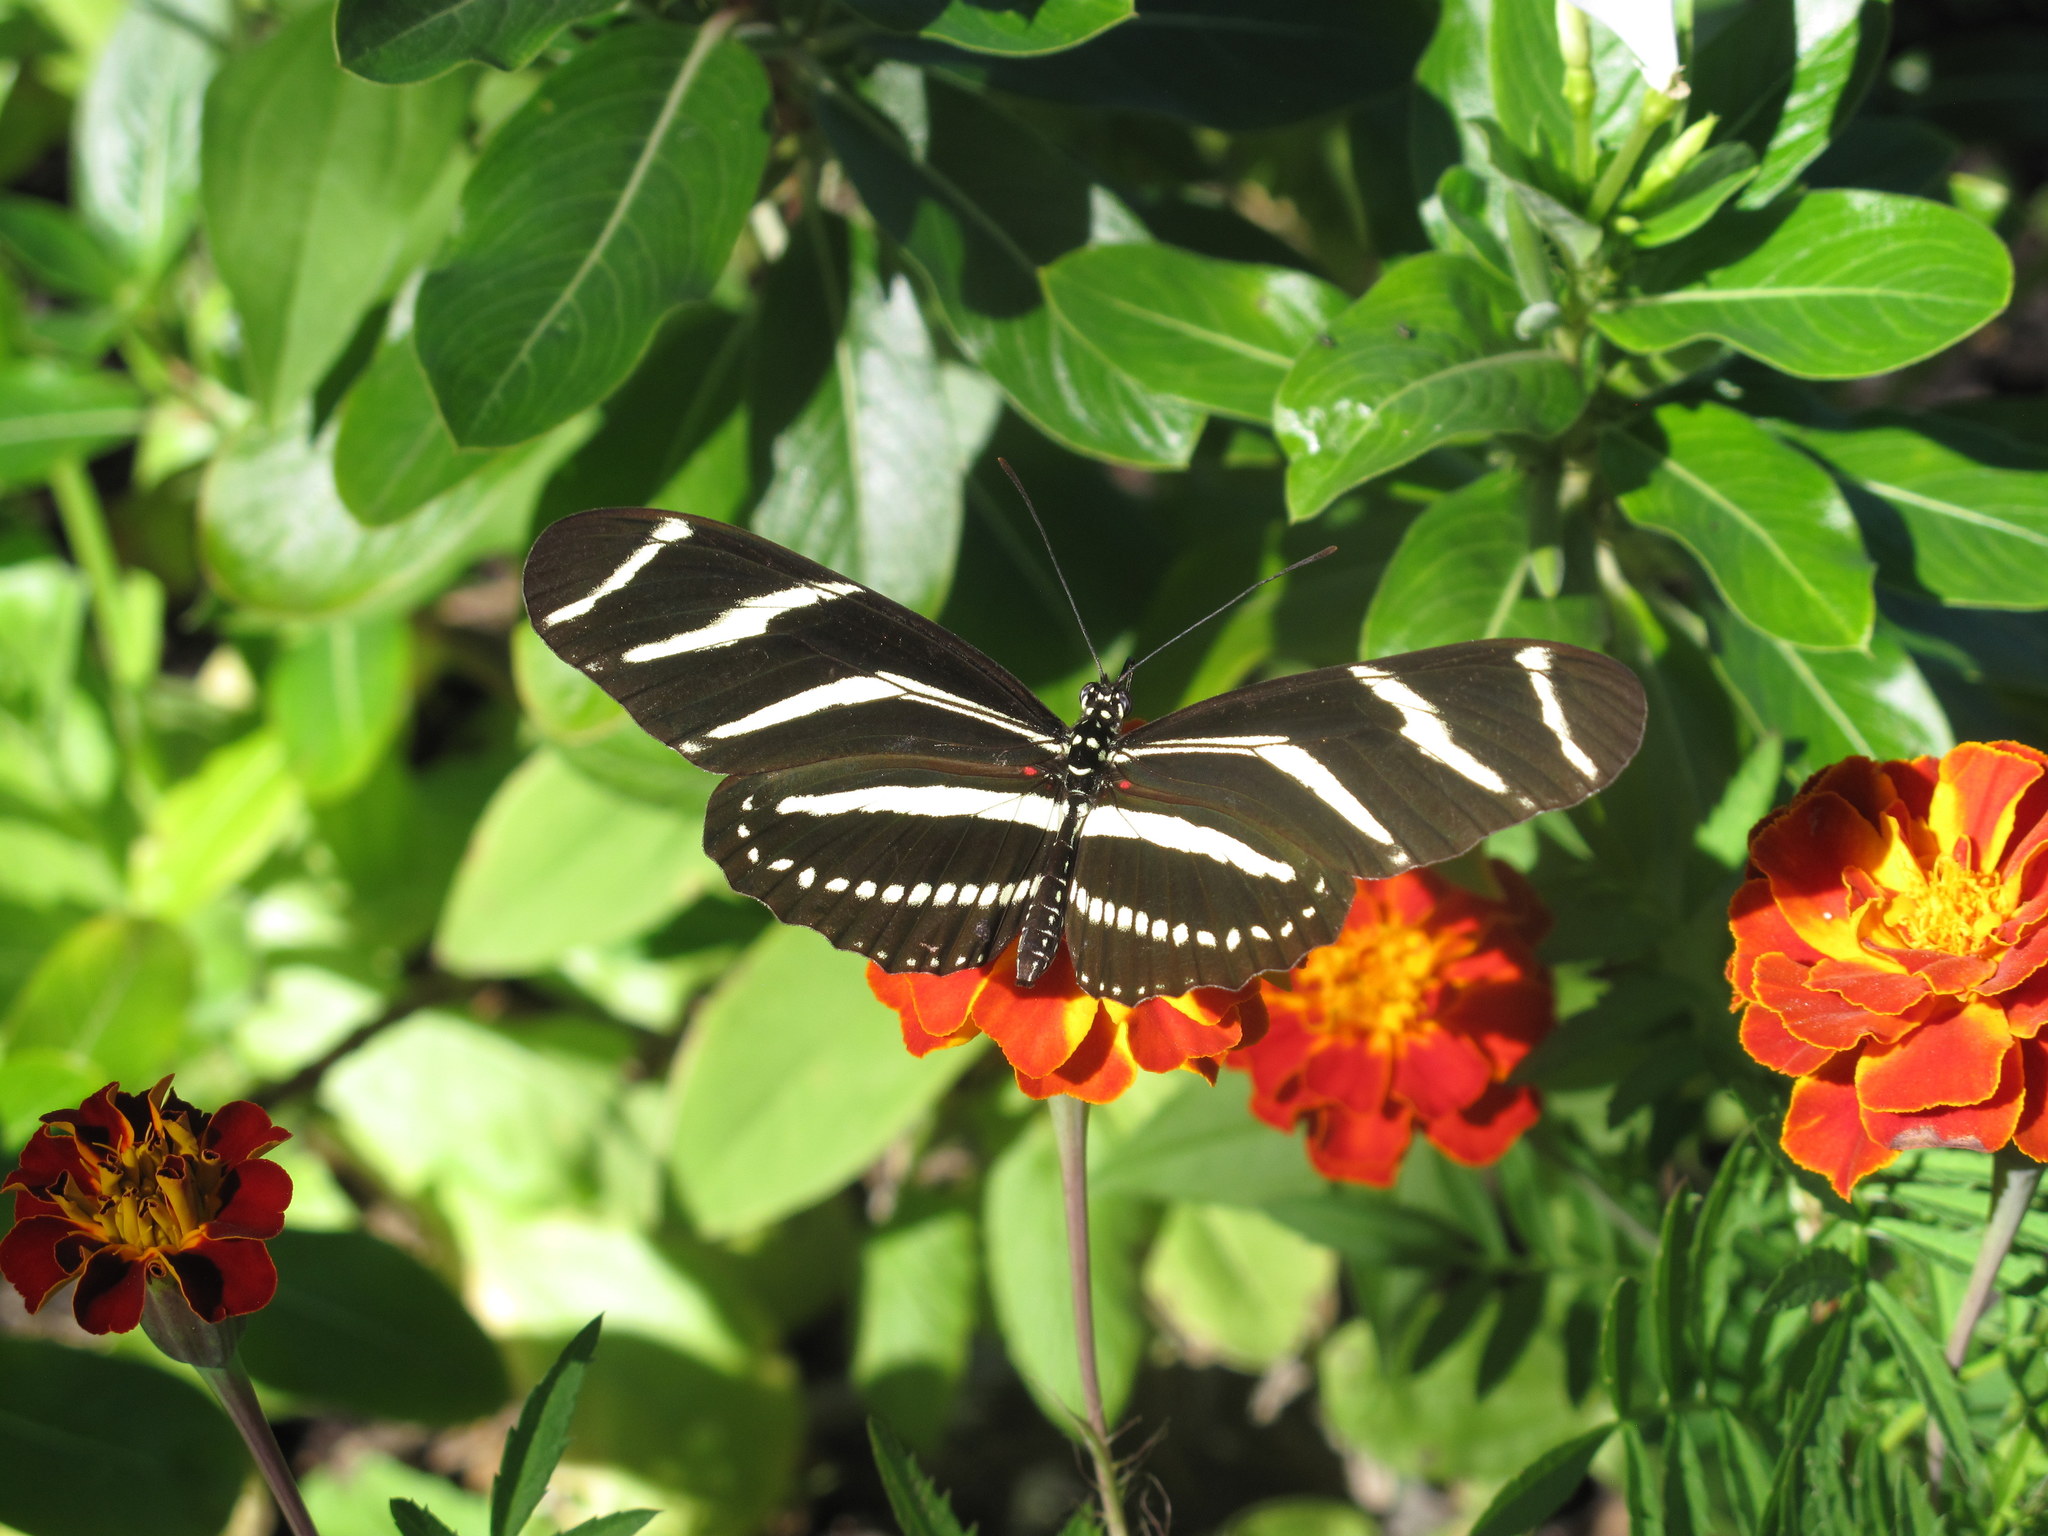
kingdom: Animalia
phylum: Arthropoda
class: Insecta
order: Lepidoptera
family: Nymphalidae
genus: Heliconius
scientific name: Heliconius charithonia
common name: Zebra long wing
